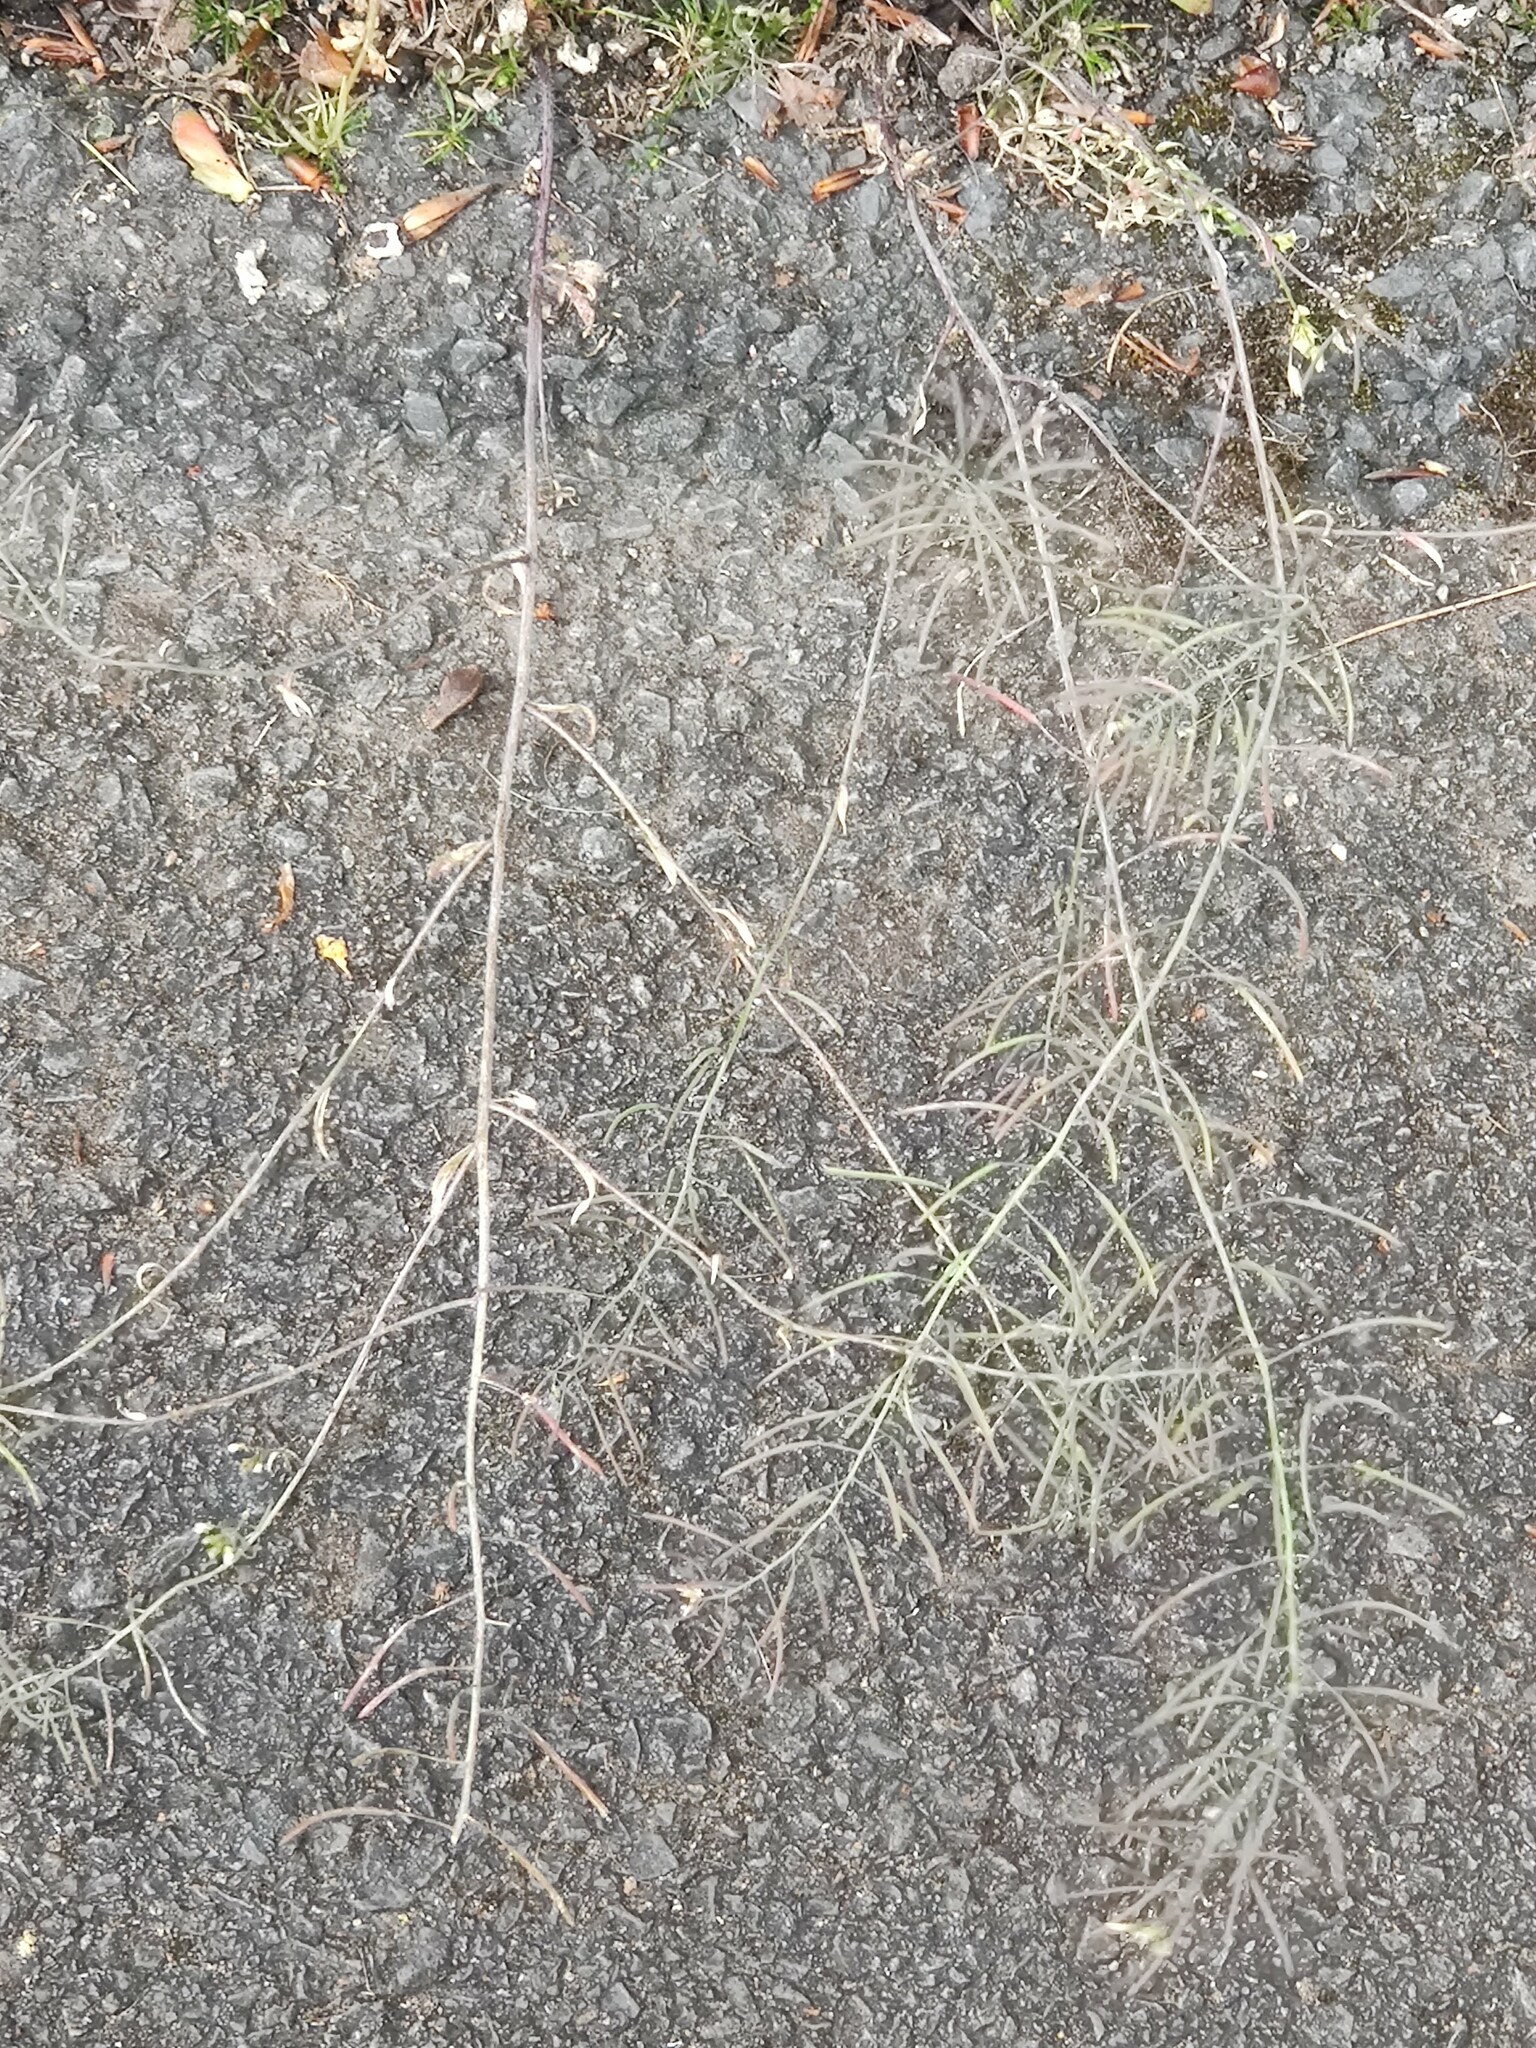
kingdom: Plantae
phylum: Tracheophyta
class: Magnoliopsida
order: Brassicales
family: Brassicaceae
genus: Arabidopsis
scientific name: Arabidopsis thaliana
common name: Thale cress
